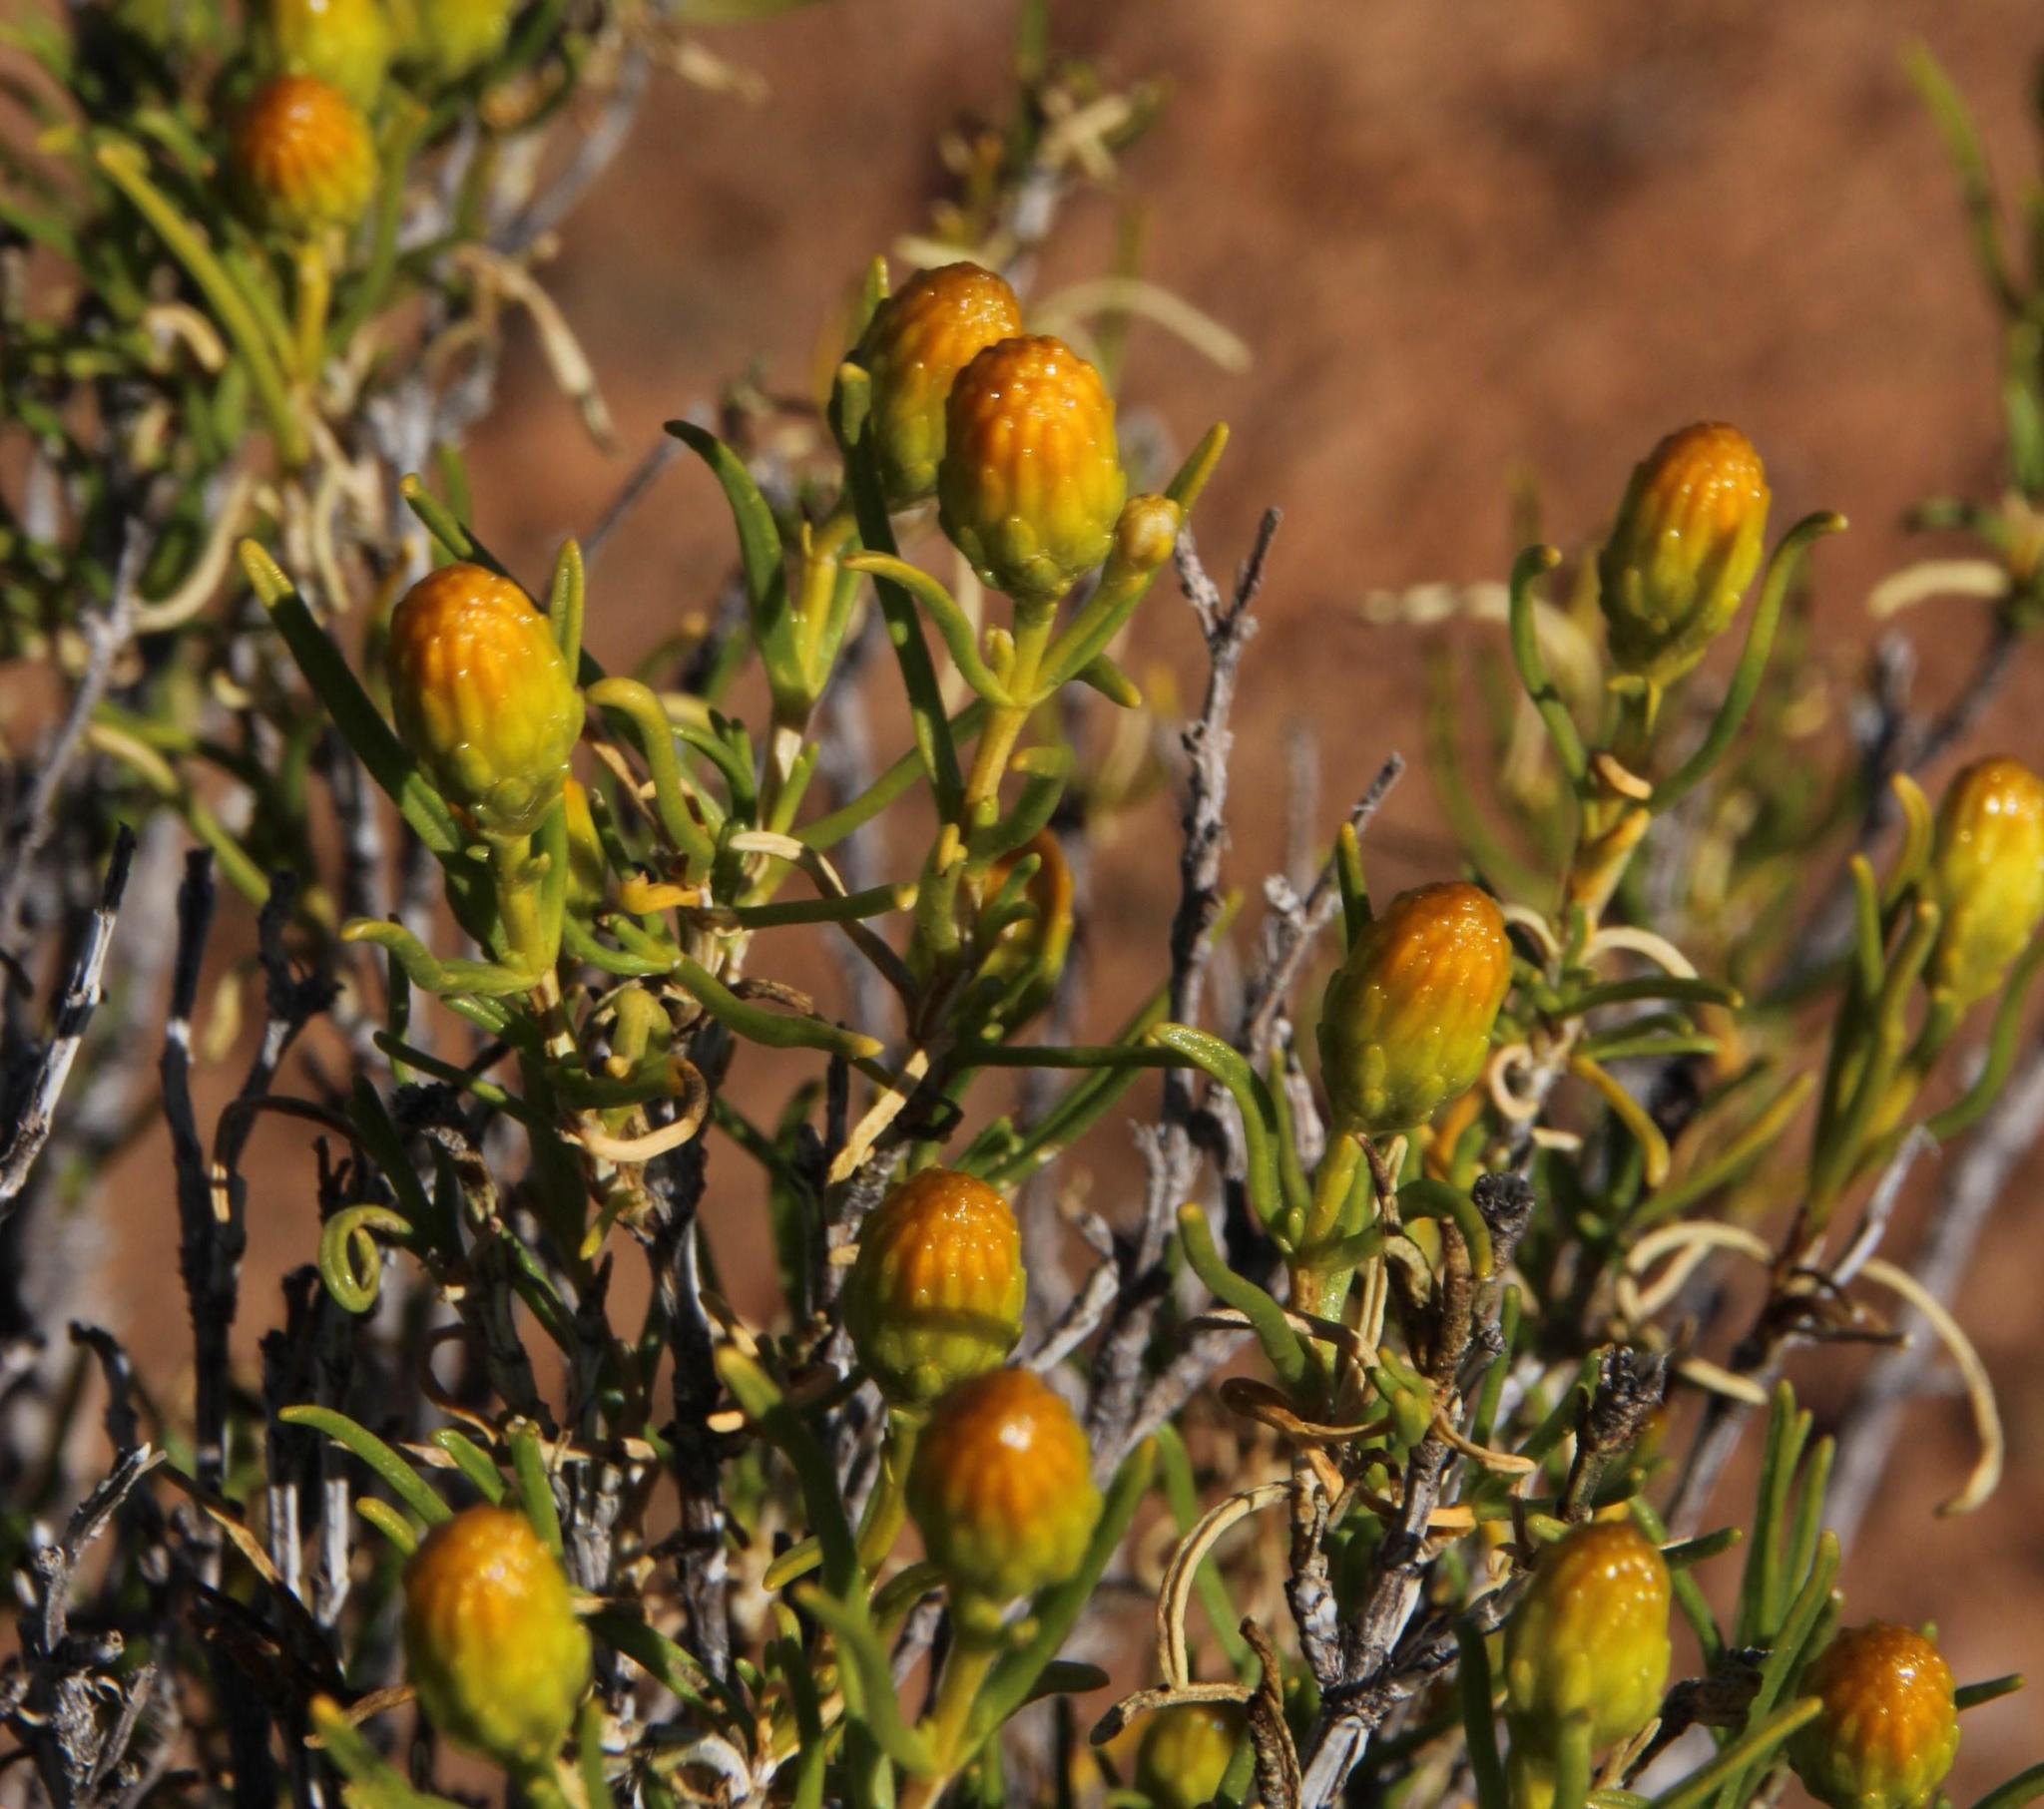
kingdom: Plantae
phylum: Tracheophyta
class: Magnoliopsida
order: Asterales
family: Asteraceae
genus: Pteronia
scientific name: Pteronia pallens
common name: Scholtzbush
